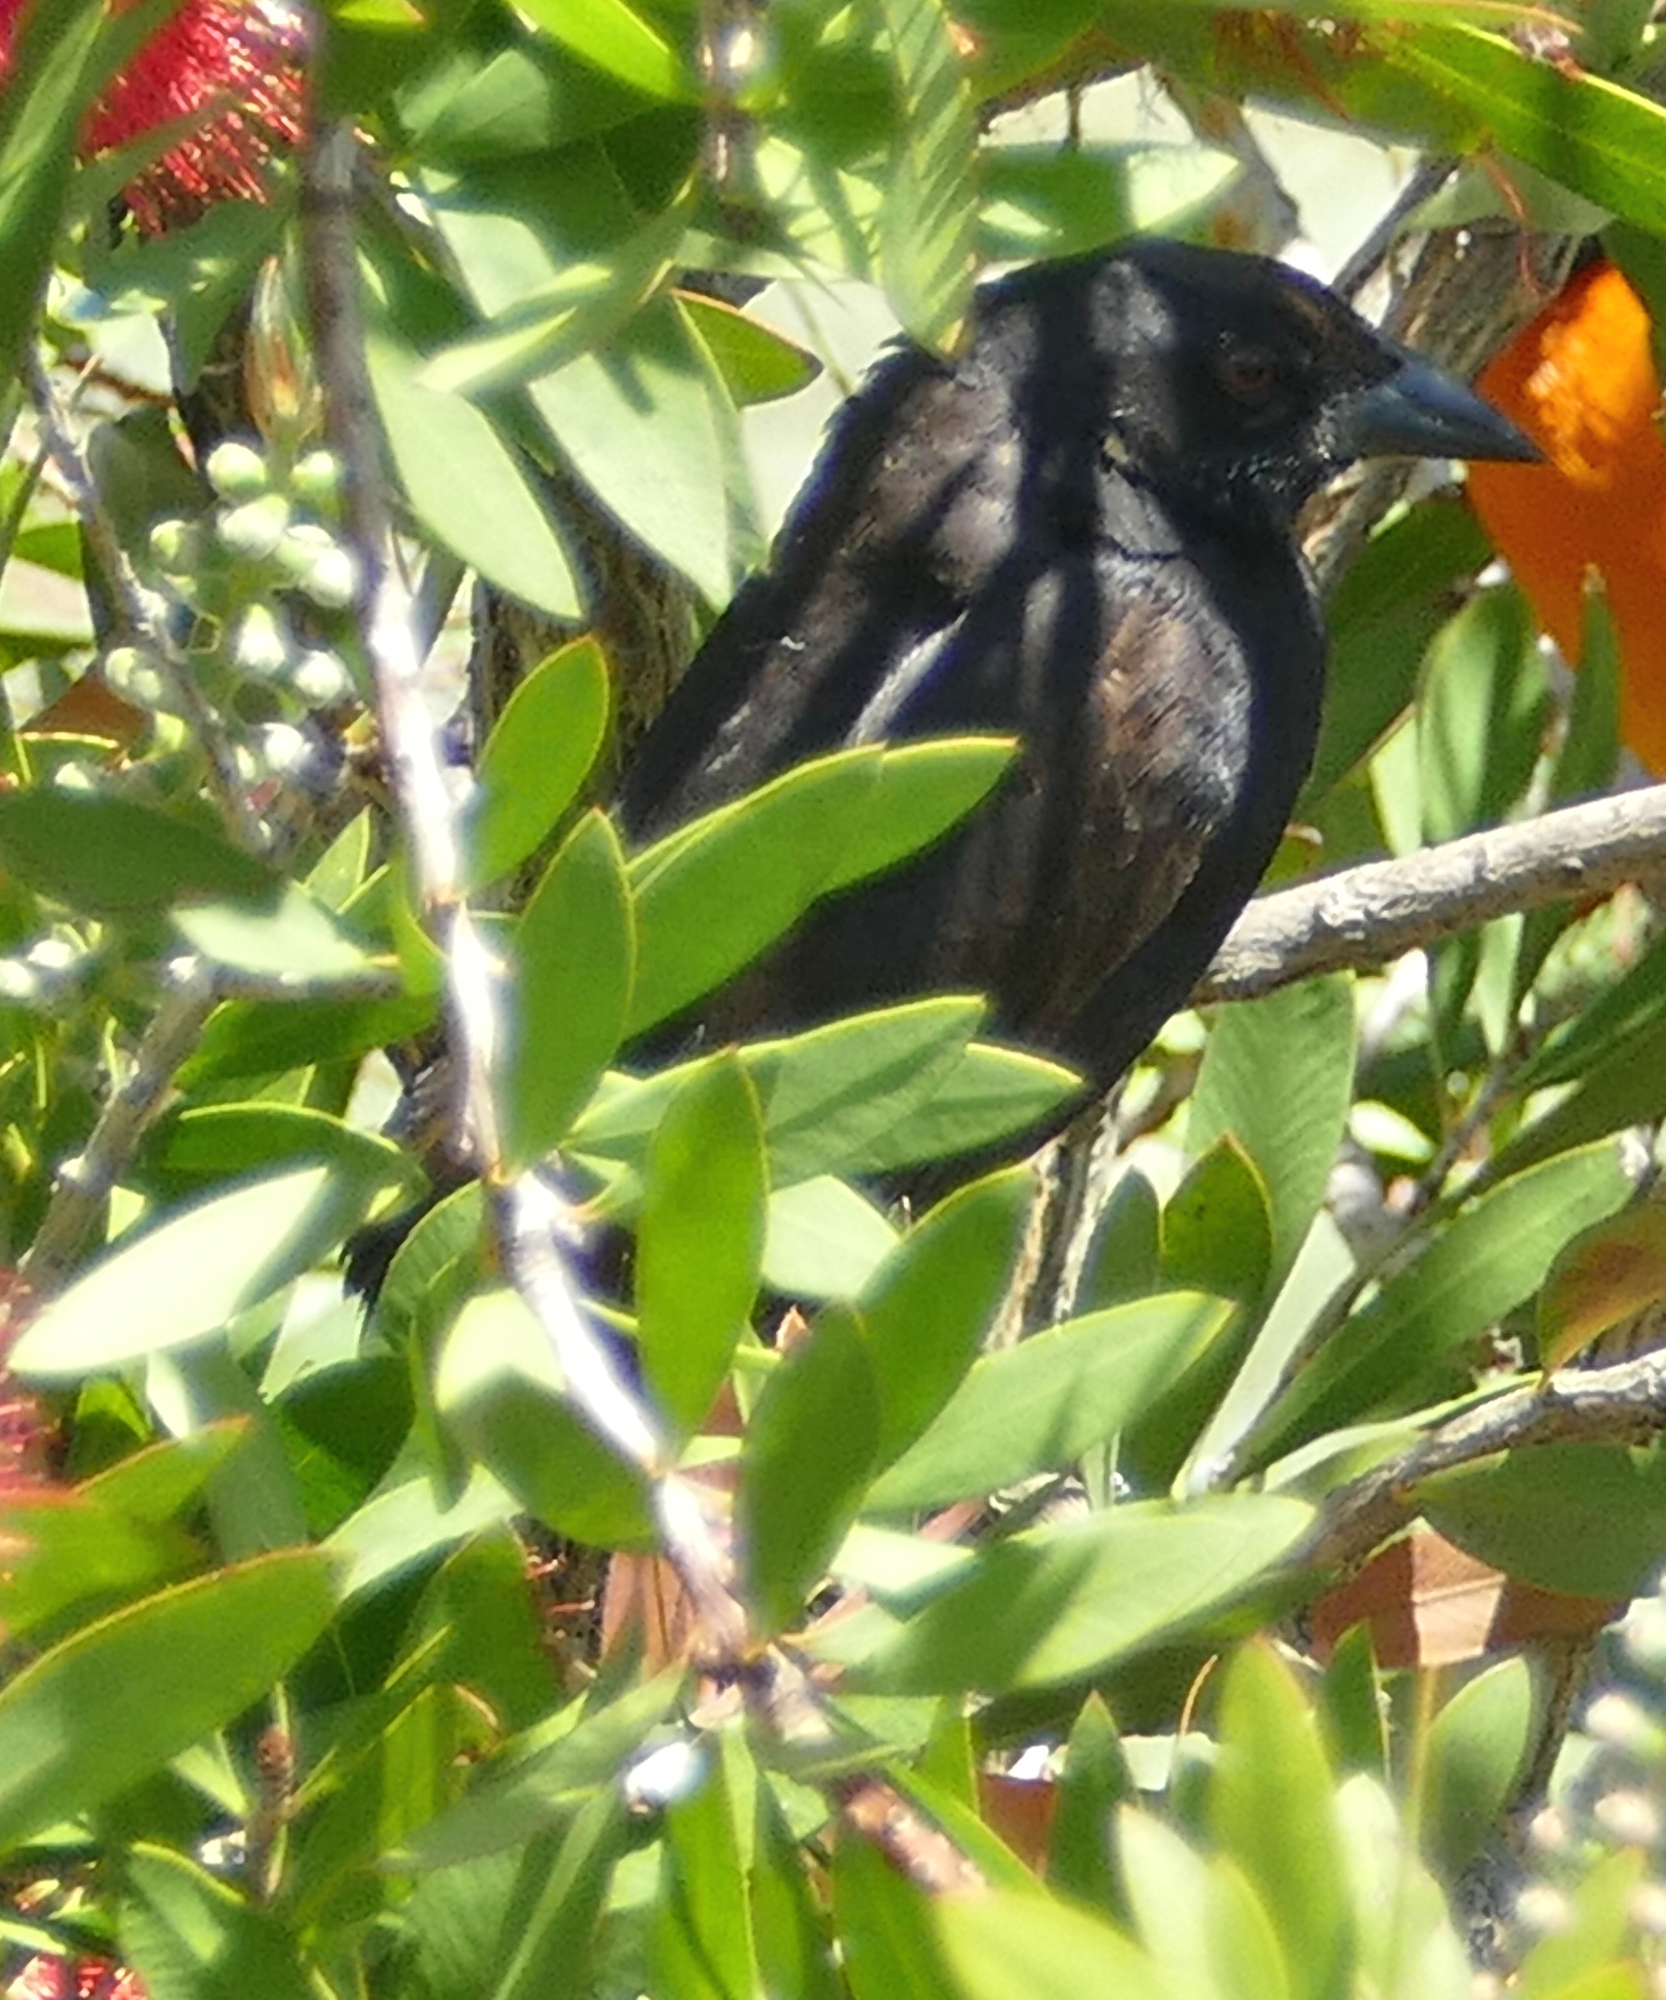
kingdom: Animalia
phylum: Chordata
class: Aves
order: Passeriformes
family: Icteridae
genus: Molothrus
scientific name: Molothrus aeneus
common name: Bronzed cowbird
